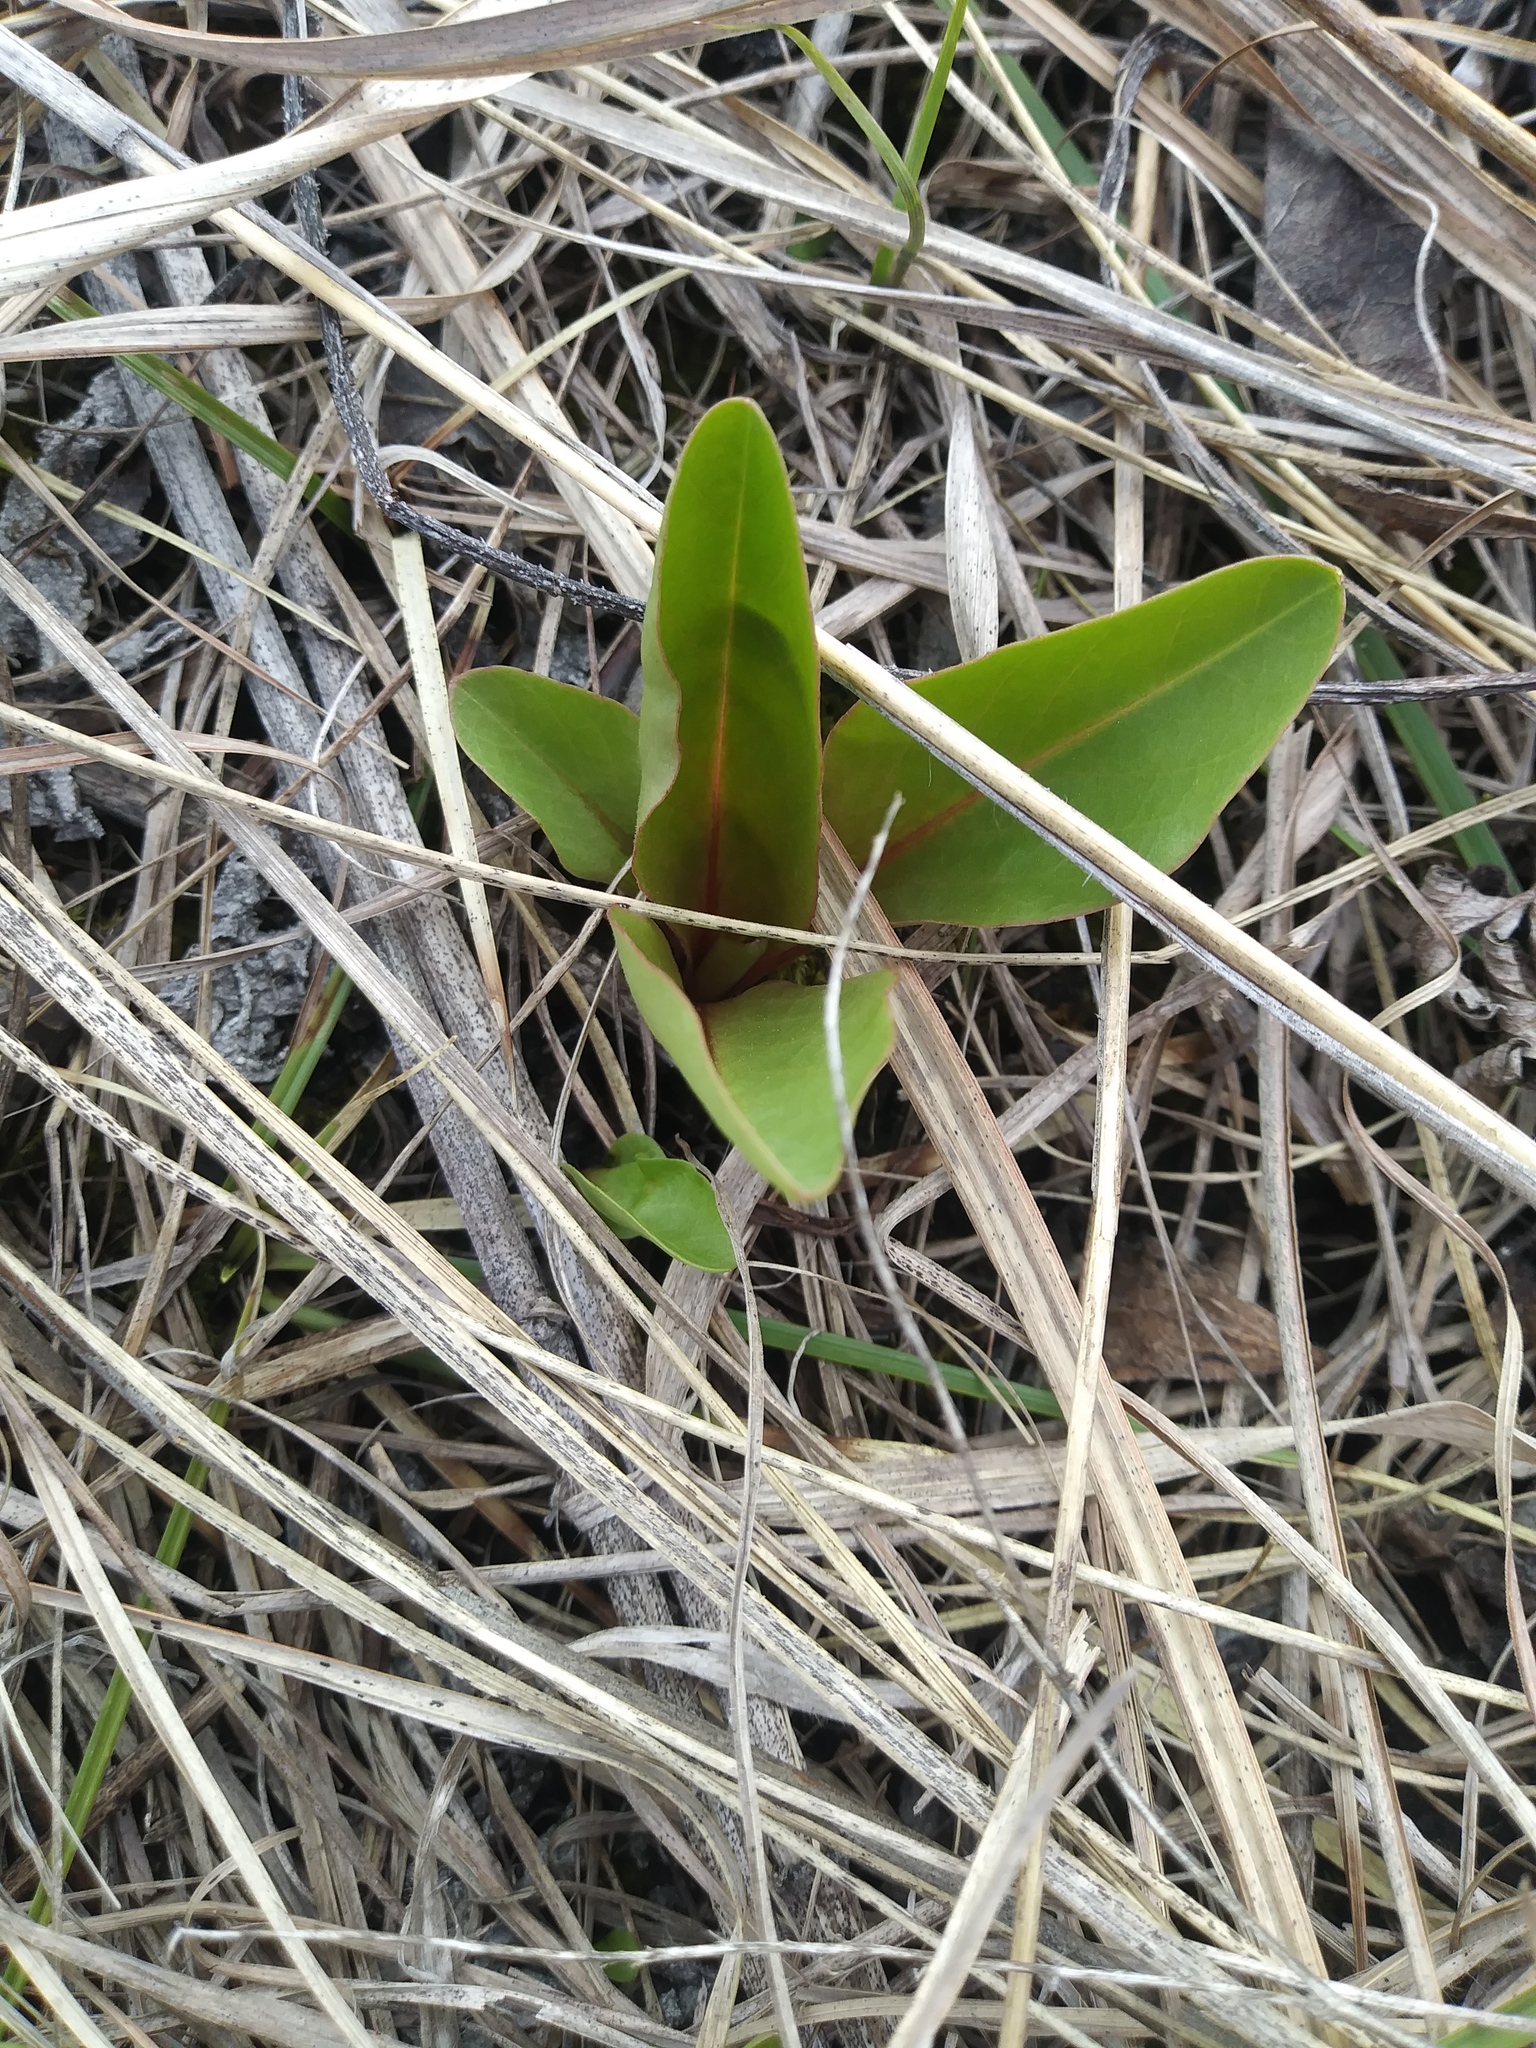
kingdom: Plantae
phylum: Tracheophyta
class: Magnoliopsida
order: Ericales
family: Primulaceae
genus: Dodecatheon
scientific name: Dodecatheon meadia
